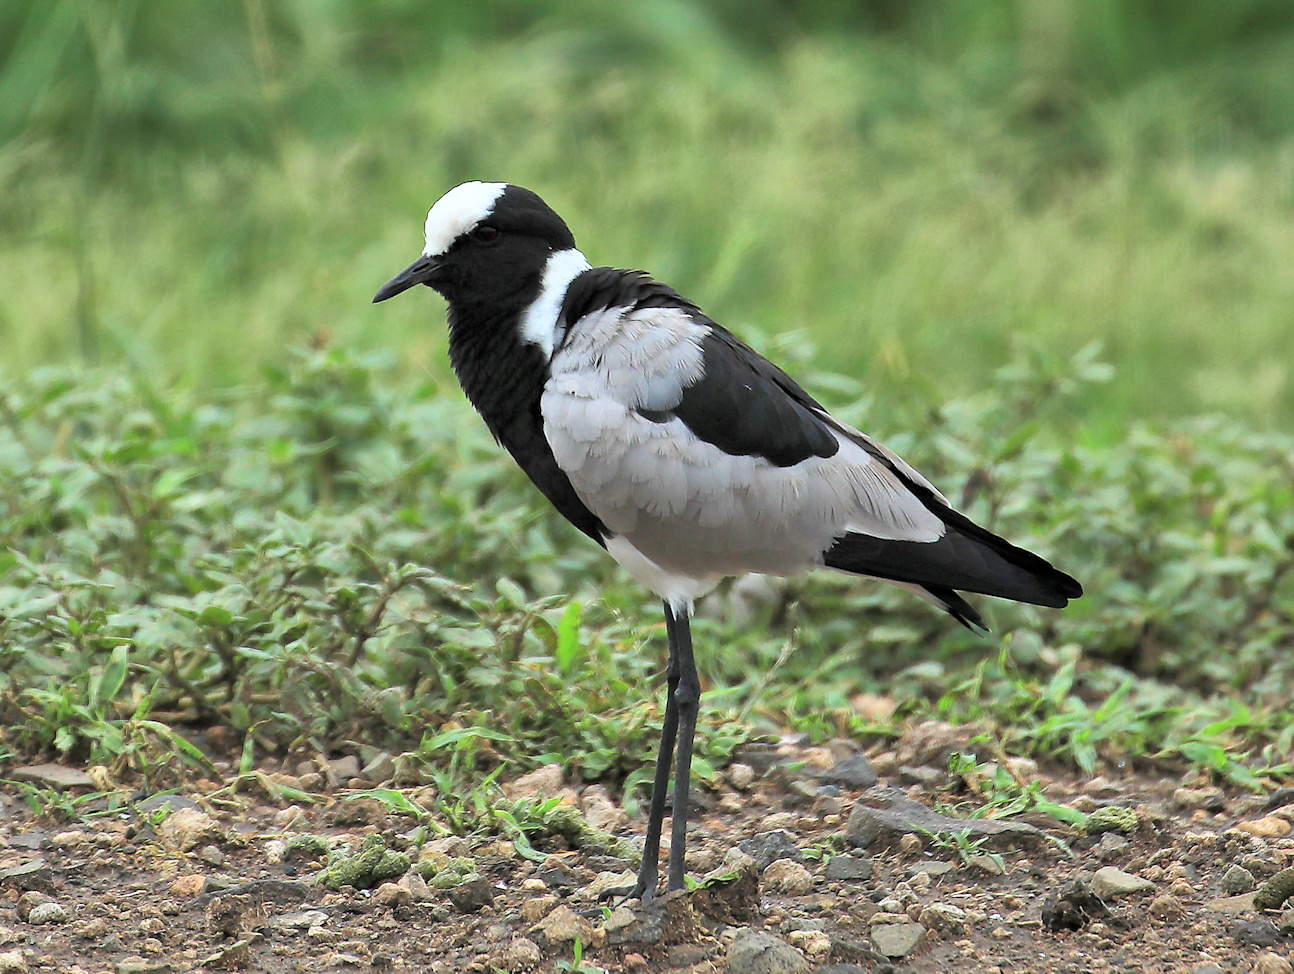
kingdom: Animalia
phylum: Chordata
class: Aves
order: Charadriiformes
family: Charadriidae
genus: Vanellus
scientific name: Vanellus armatus
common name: Blacksmith lapwing
